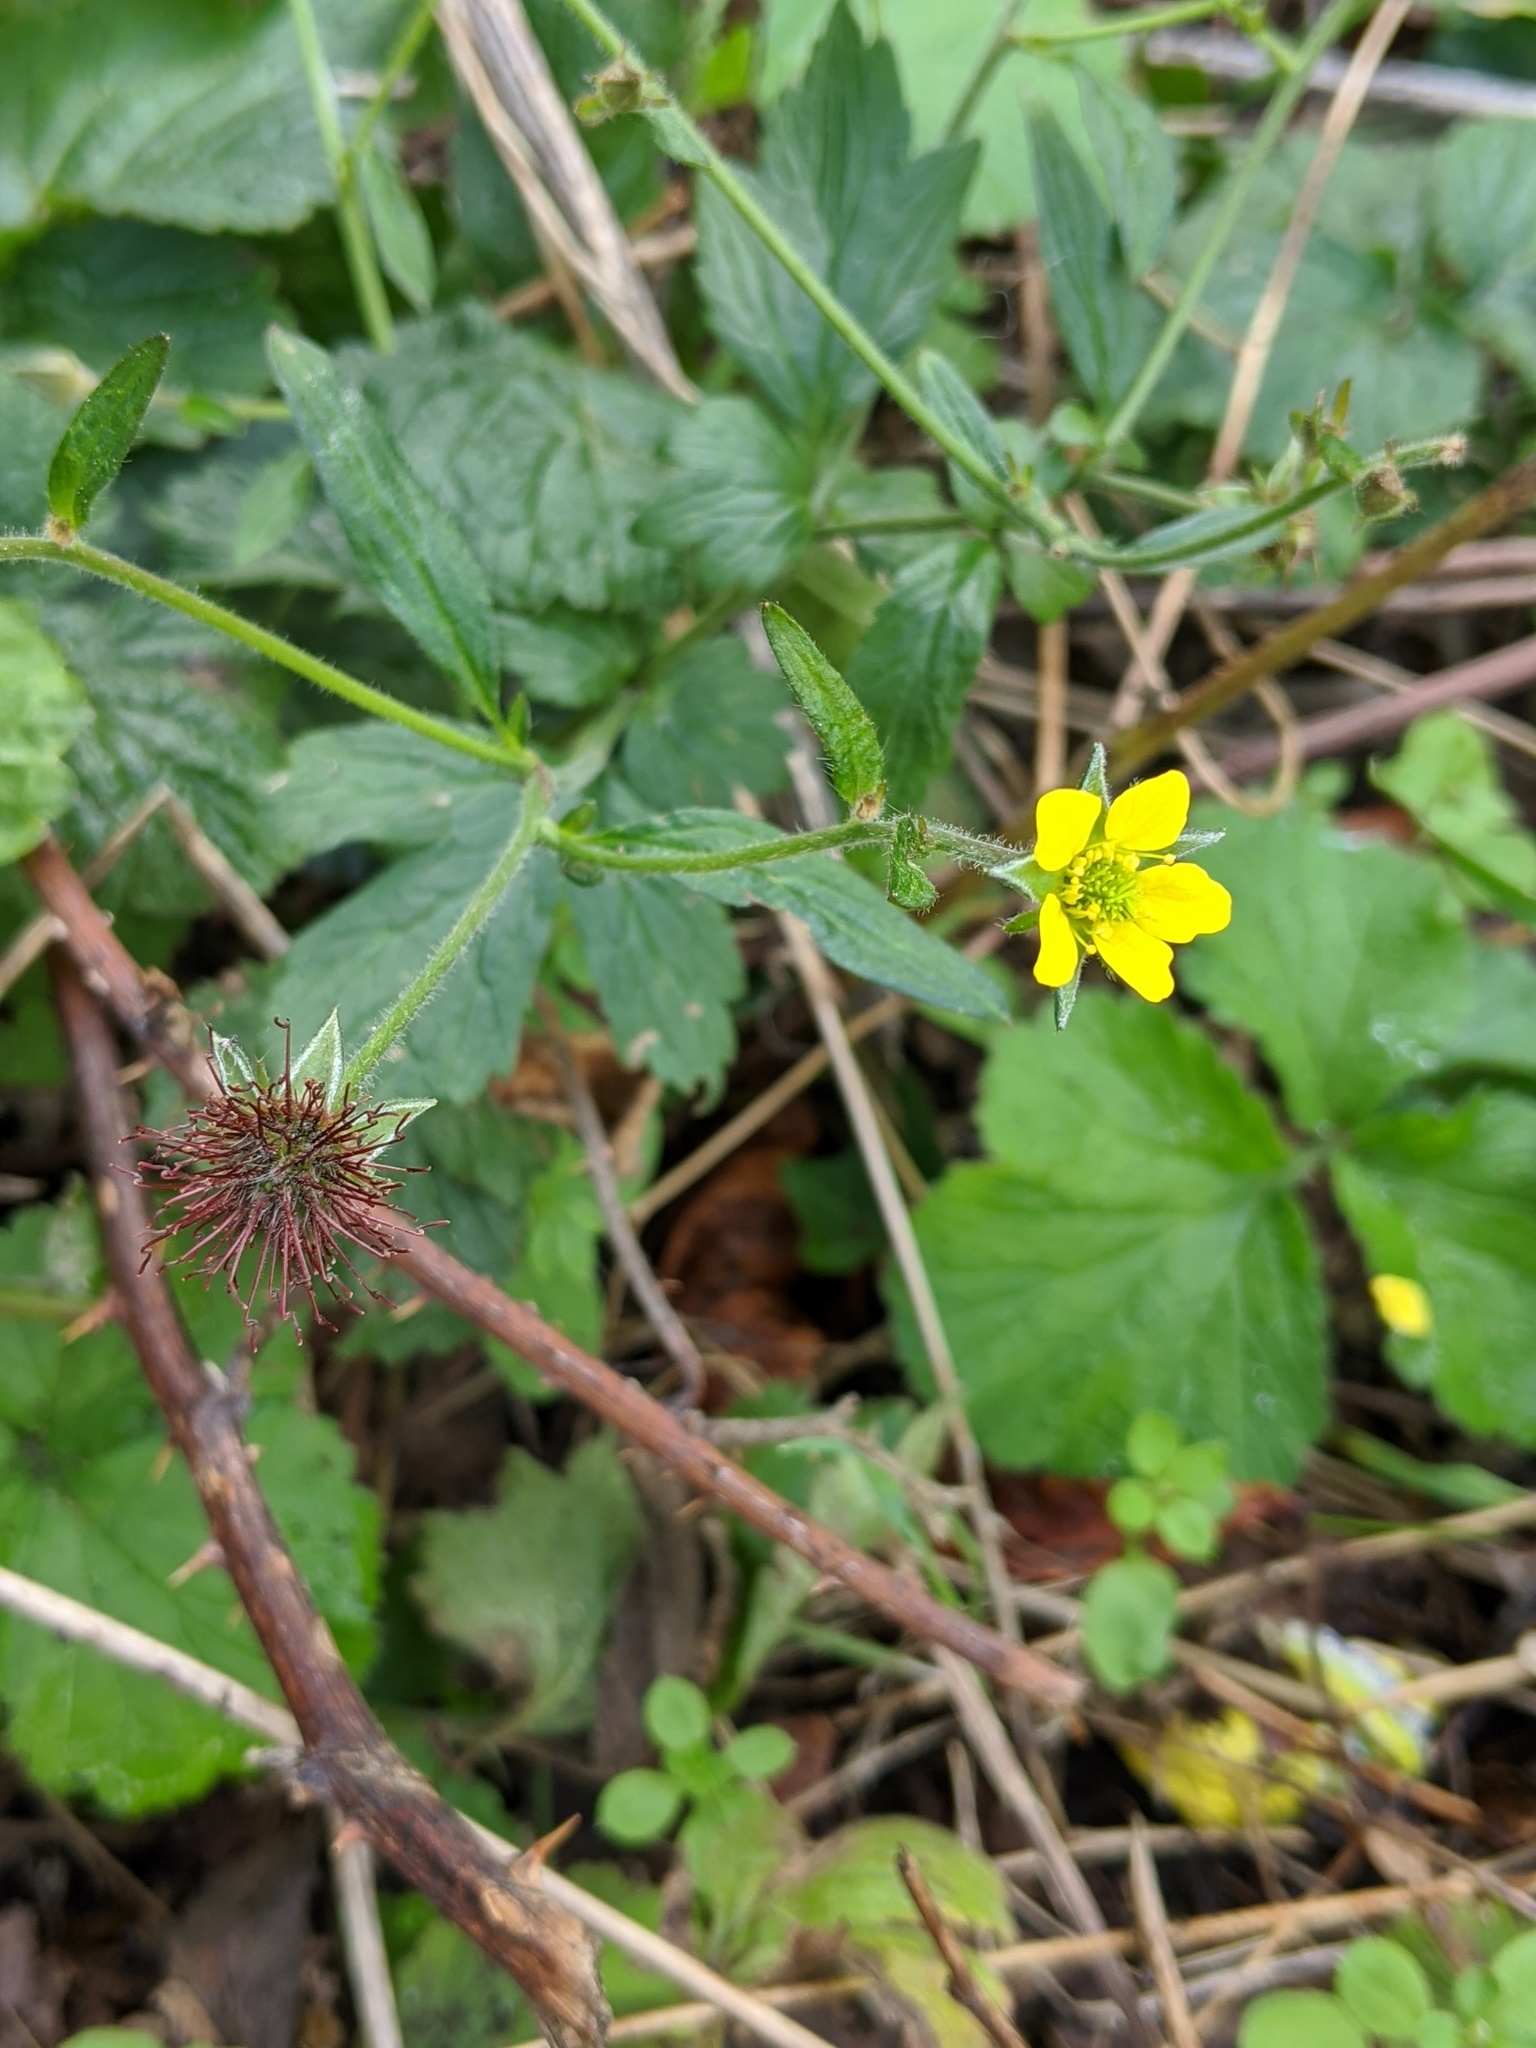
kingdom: Plantae
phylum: Tracheophyta
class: Magnoliopsida
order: Rosales
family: Rosaceae
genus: Geum
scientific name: Geum urbanum
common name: Wood avens
